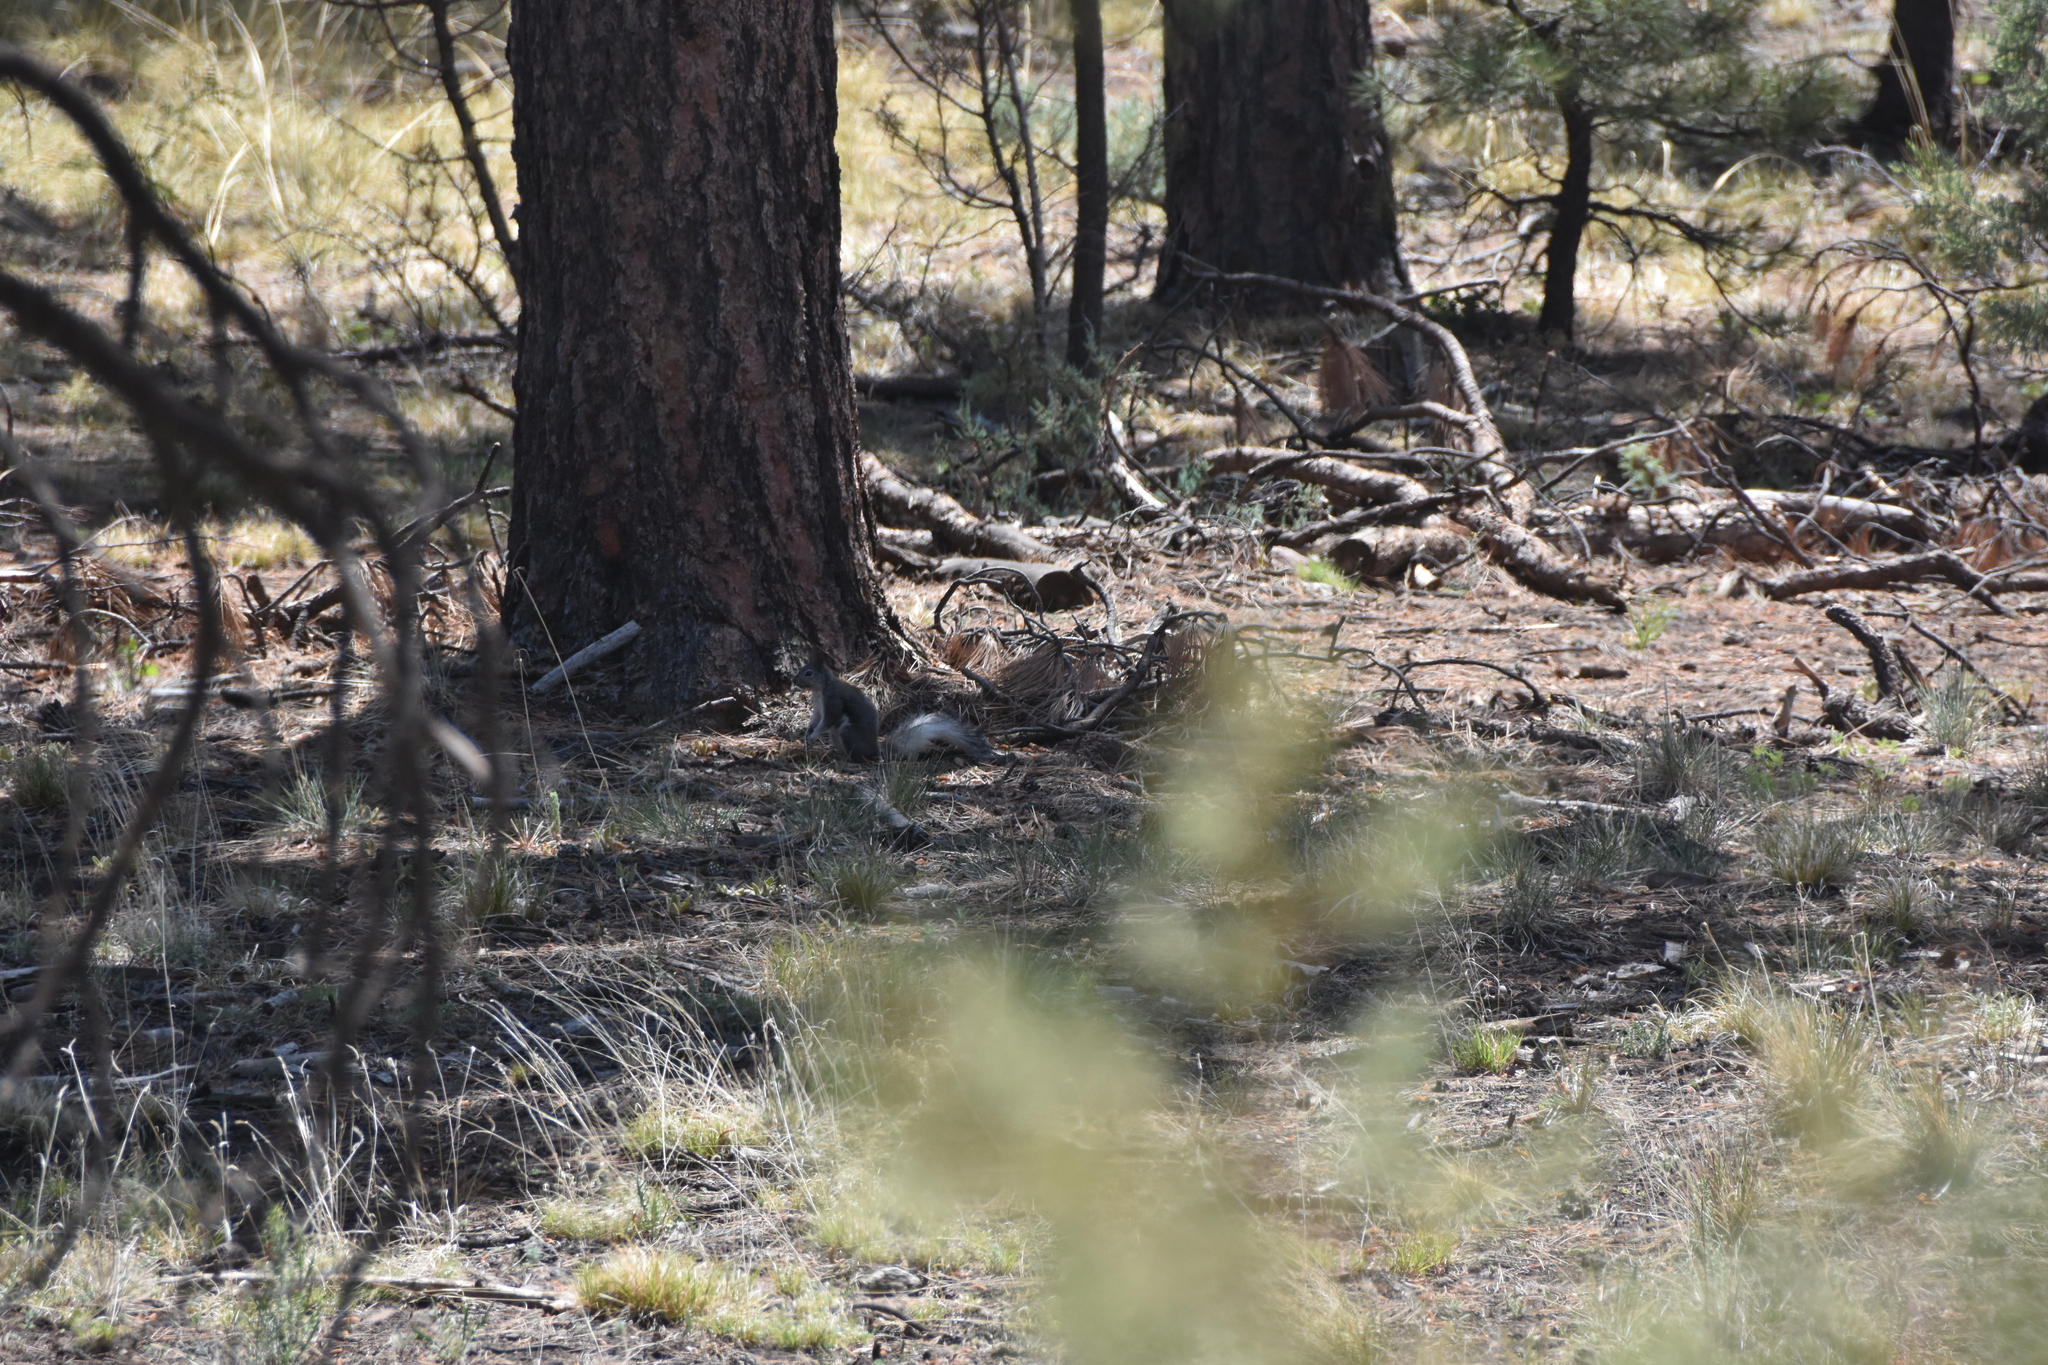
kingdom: Animalia
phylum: Chordata
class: Mammalia
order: Rodentia
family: Sciuridae
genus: Sciurus
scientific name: Sciurus aberti
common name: Abert's squirrel
